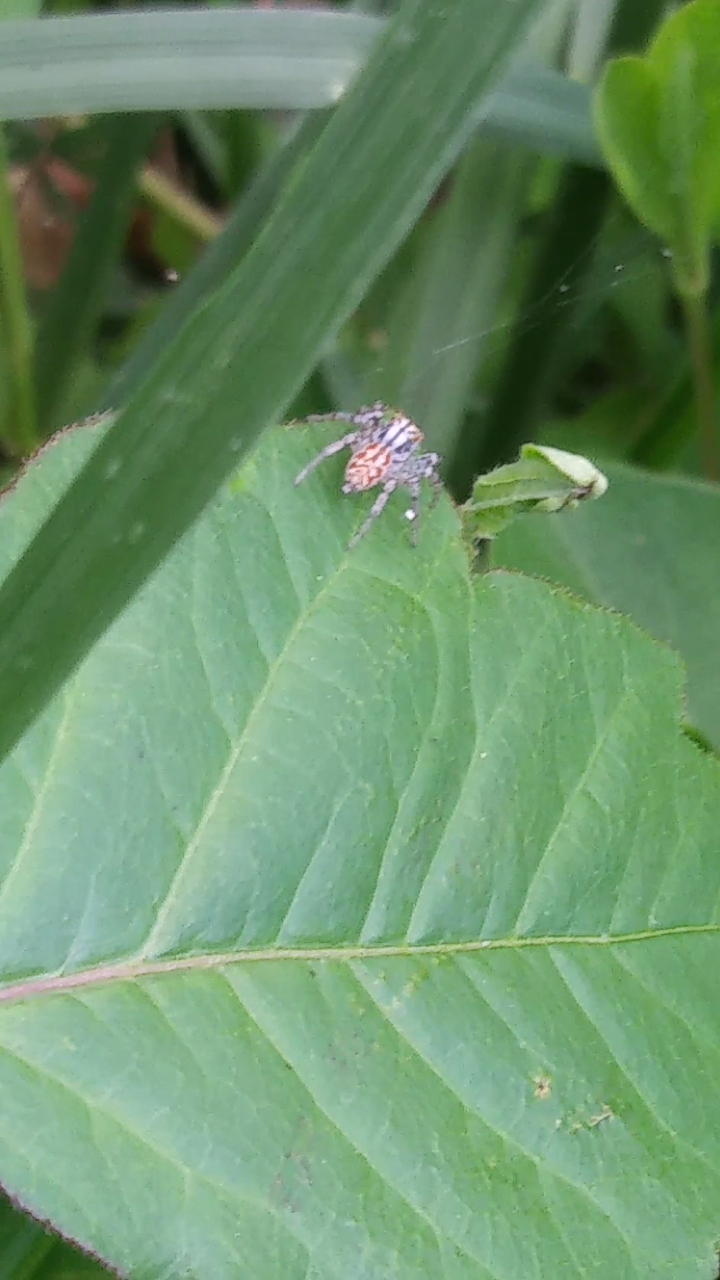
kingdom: Animalia
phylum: Arthropoda
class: Arachnida
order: Araneae
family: Salticidae
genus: Maevia
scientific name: Maevia inclemens
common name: Dimorphic jumper
